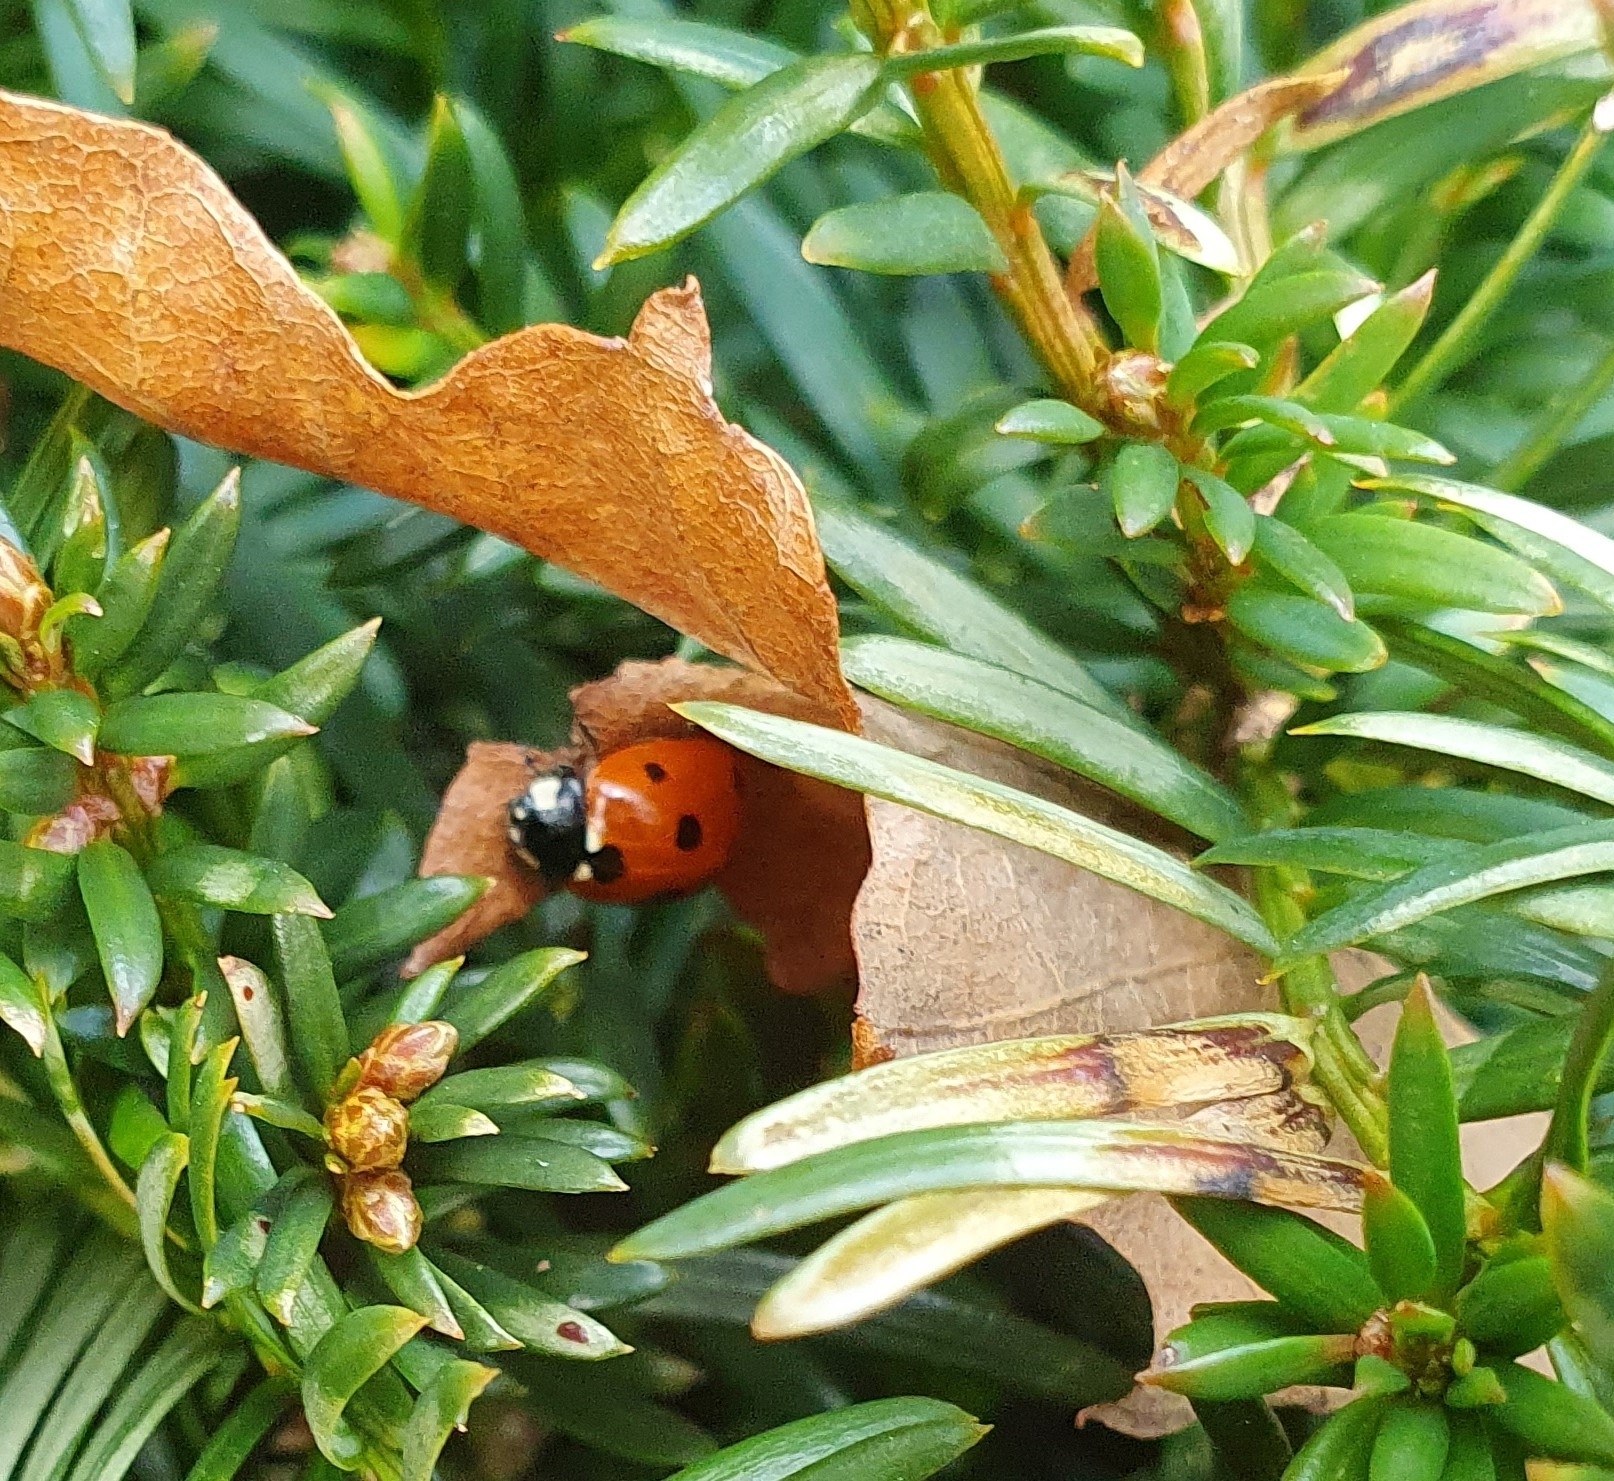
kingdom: Animalia
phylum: Arthropoda
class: Insecta
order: Coleoptera
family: Coccinellidae
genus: Coccinella
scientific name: Coccinella septempunctata
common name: Sevenspotted lady beetle
